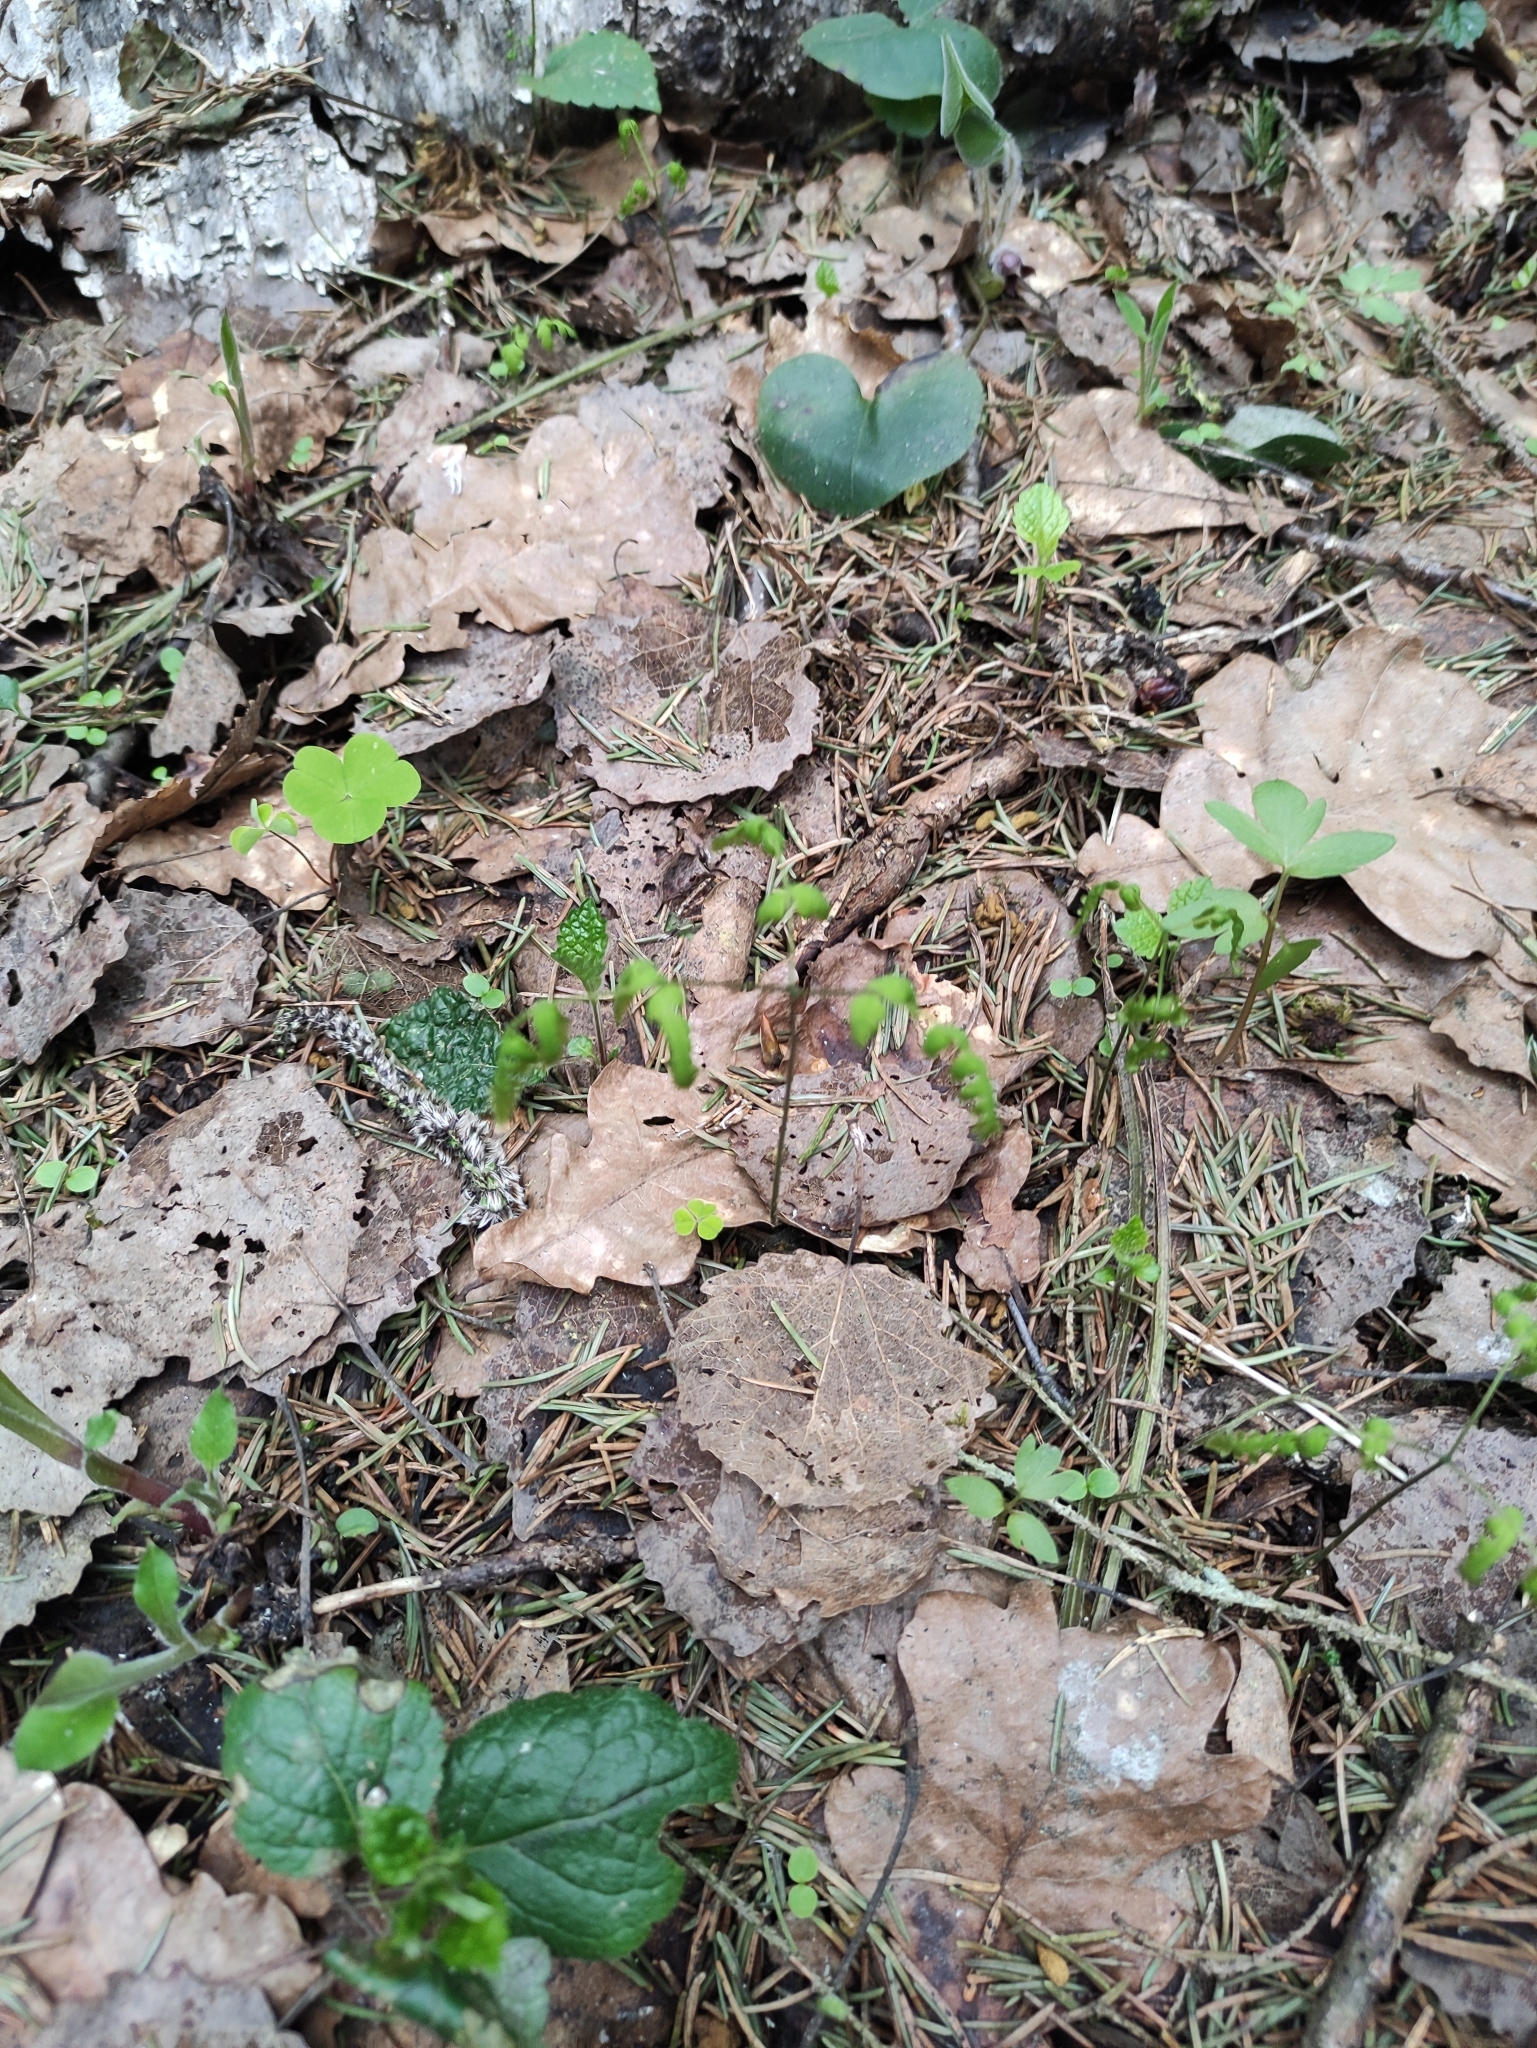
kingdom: Plantae
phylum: Tracheophyta
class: Polypodiopsida
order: Polypodiales
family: Cystopteridaceae
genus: Gymnocarpium
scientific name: Gymnocarpium dryopteris
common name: Oak fern
